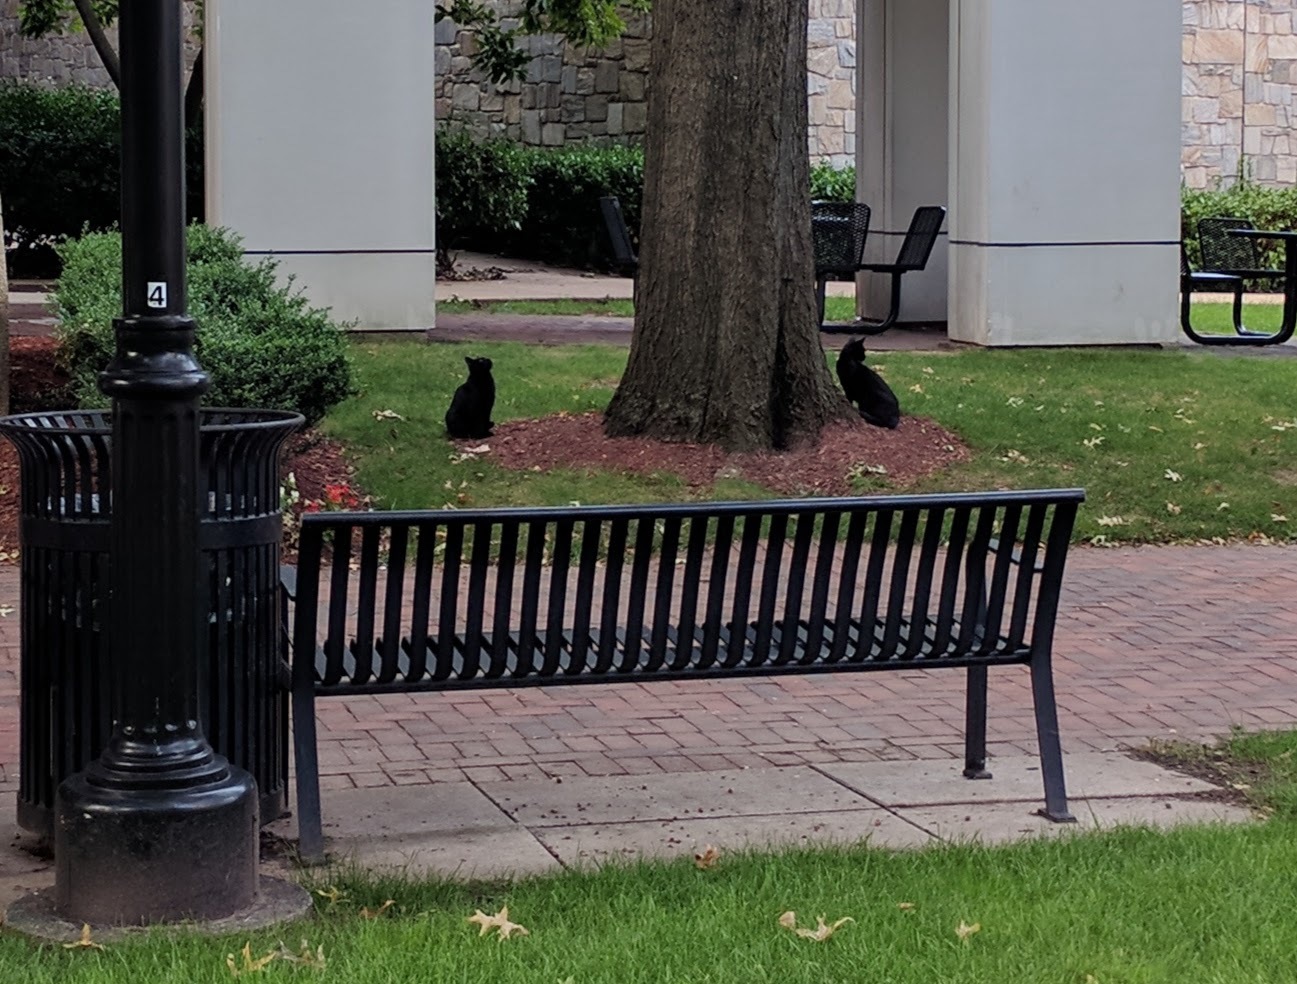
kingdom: Animalia
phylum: Chordata
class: Mammalia
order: Carnivora
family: Felidae
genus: Felis
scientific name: Felis catus
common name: Domestic cat
